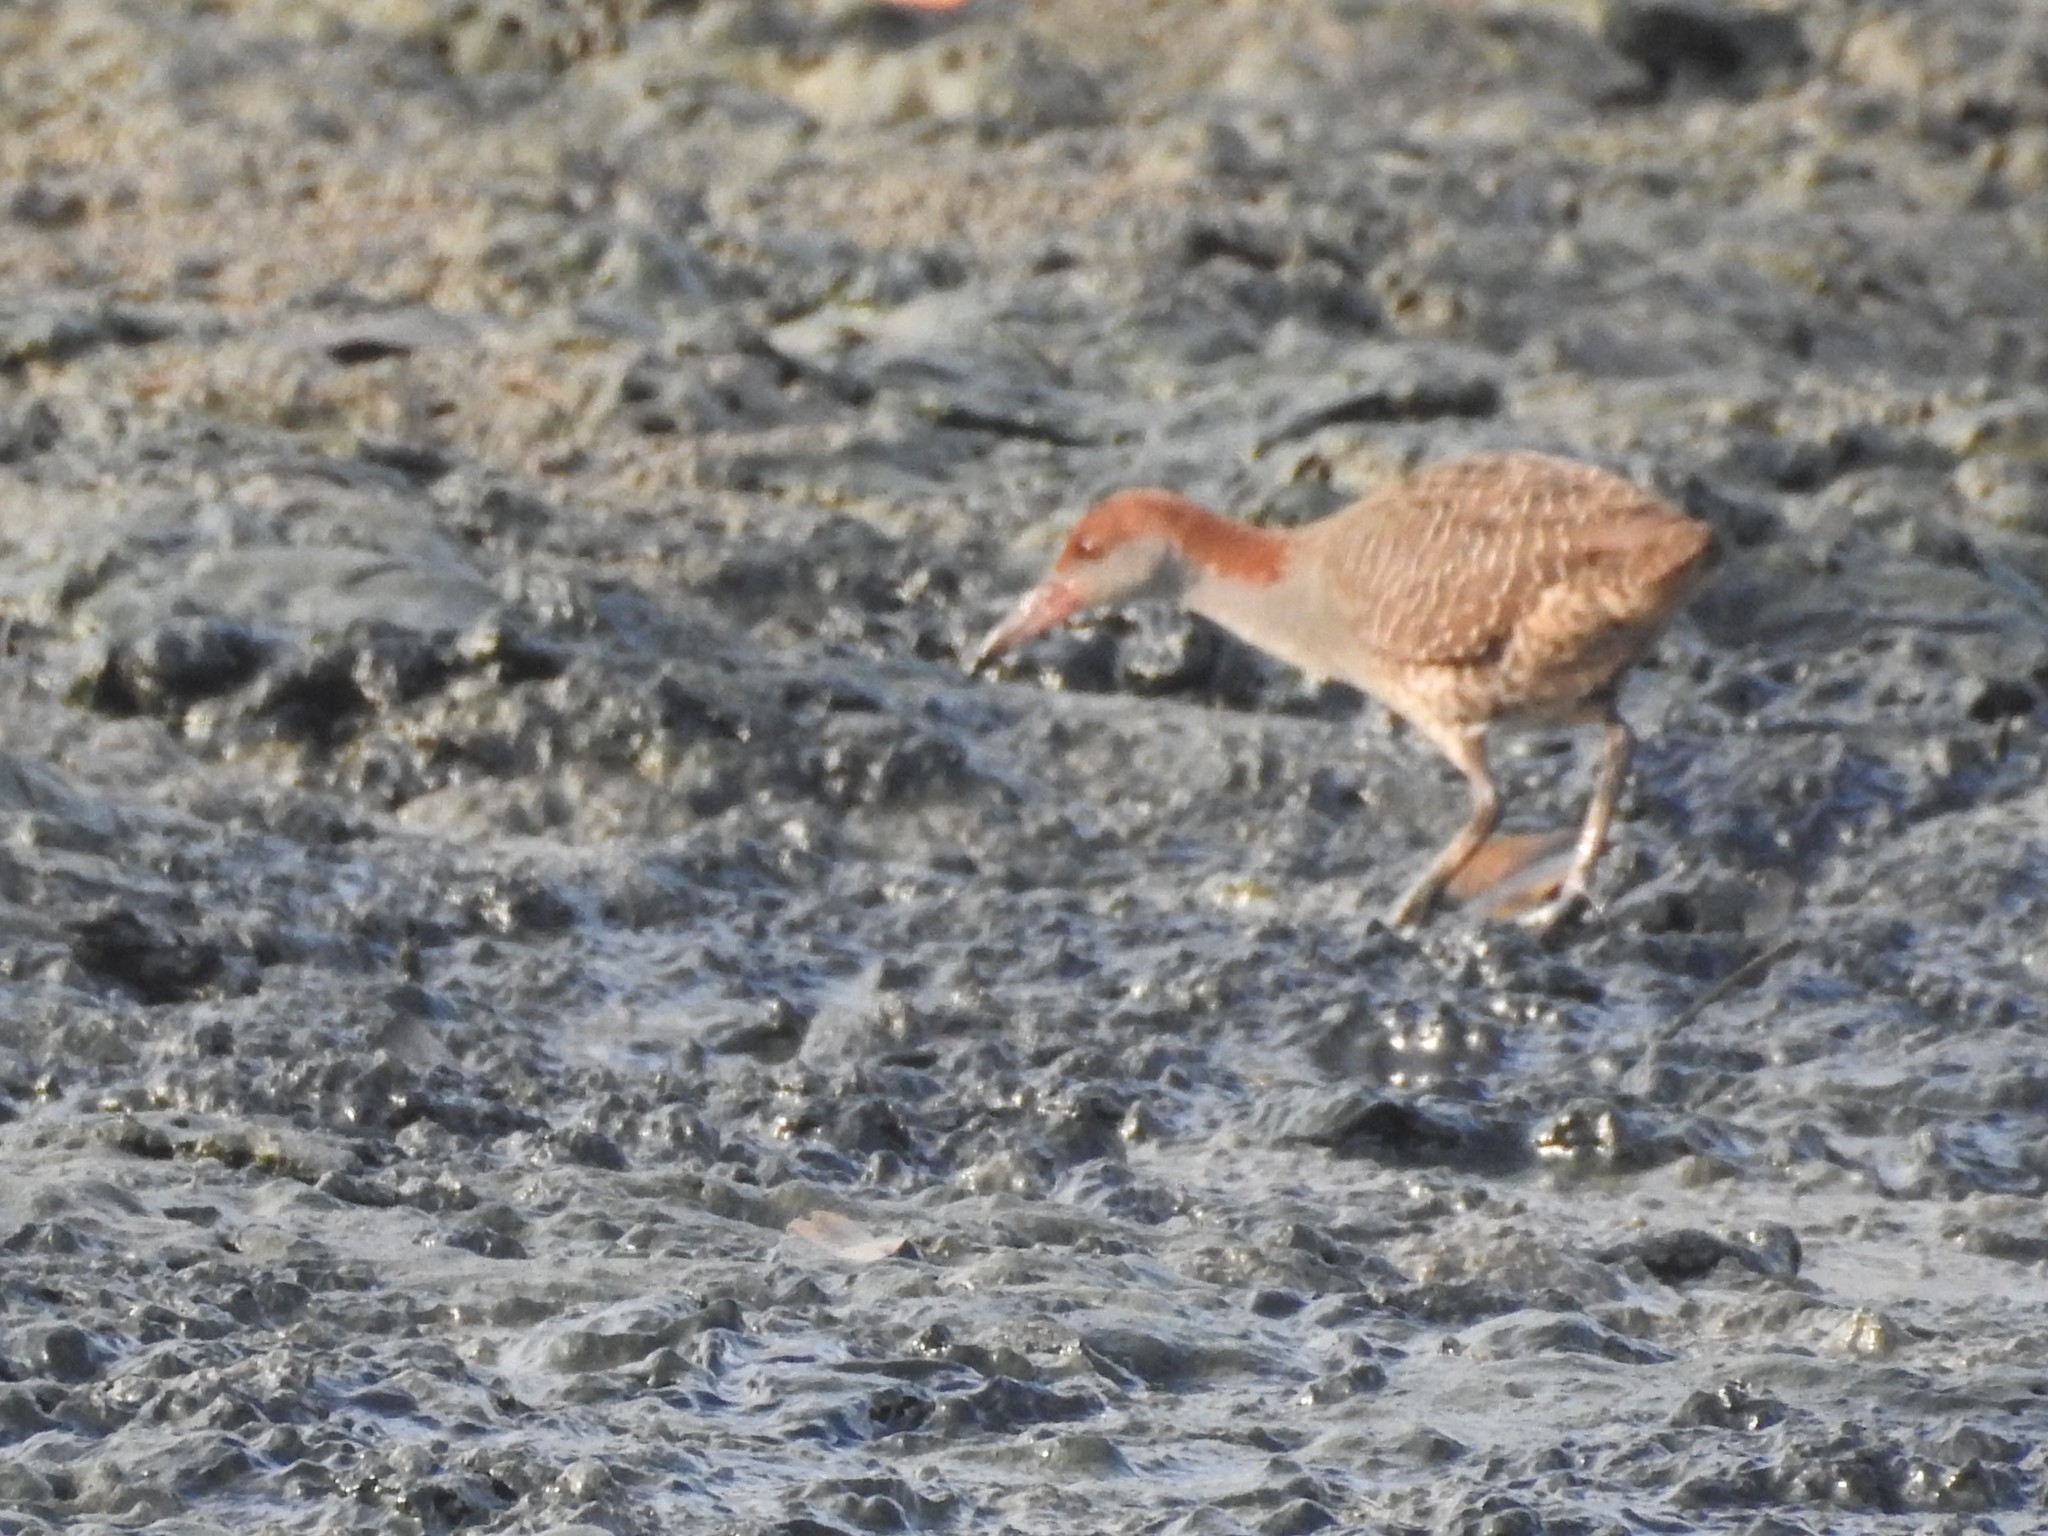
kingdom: Animalia
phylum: Chordata
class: Aves
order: Gruiformes
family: Rallidae
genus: Gallirallus
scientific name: Gallirallus striatus
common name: Slaty-breasted rail
